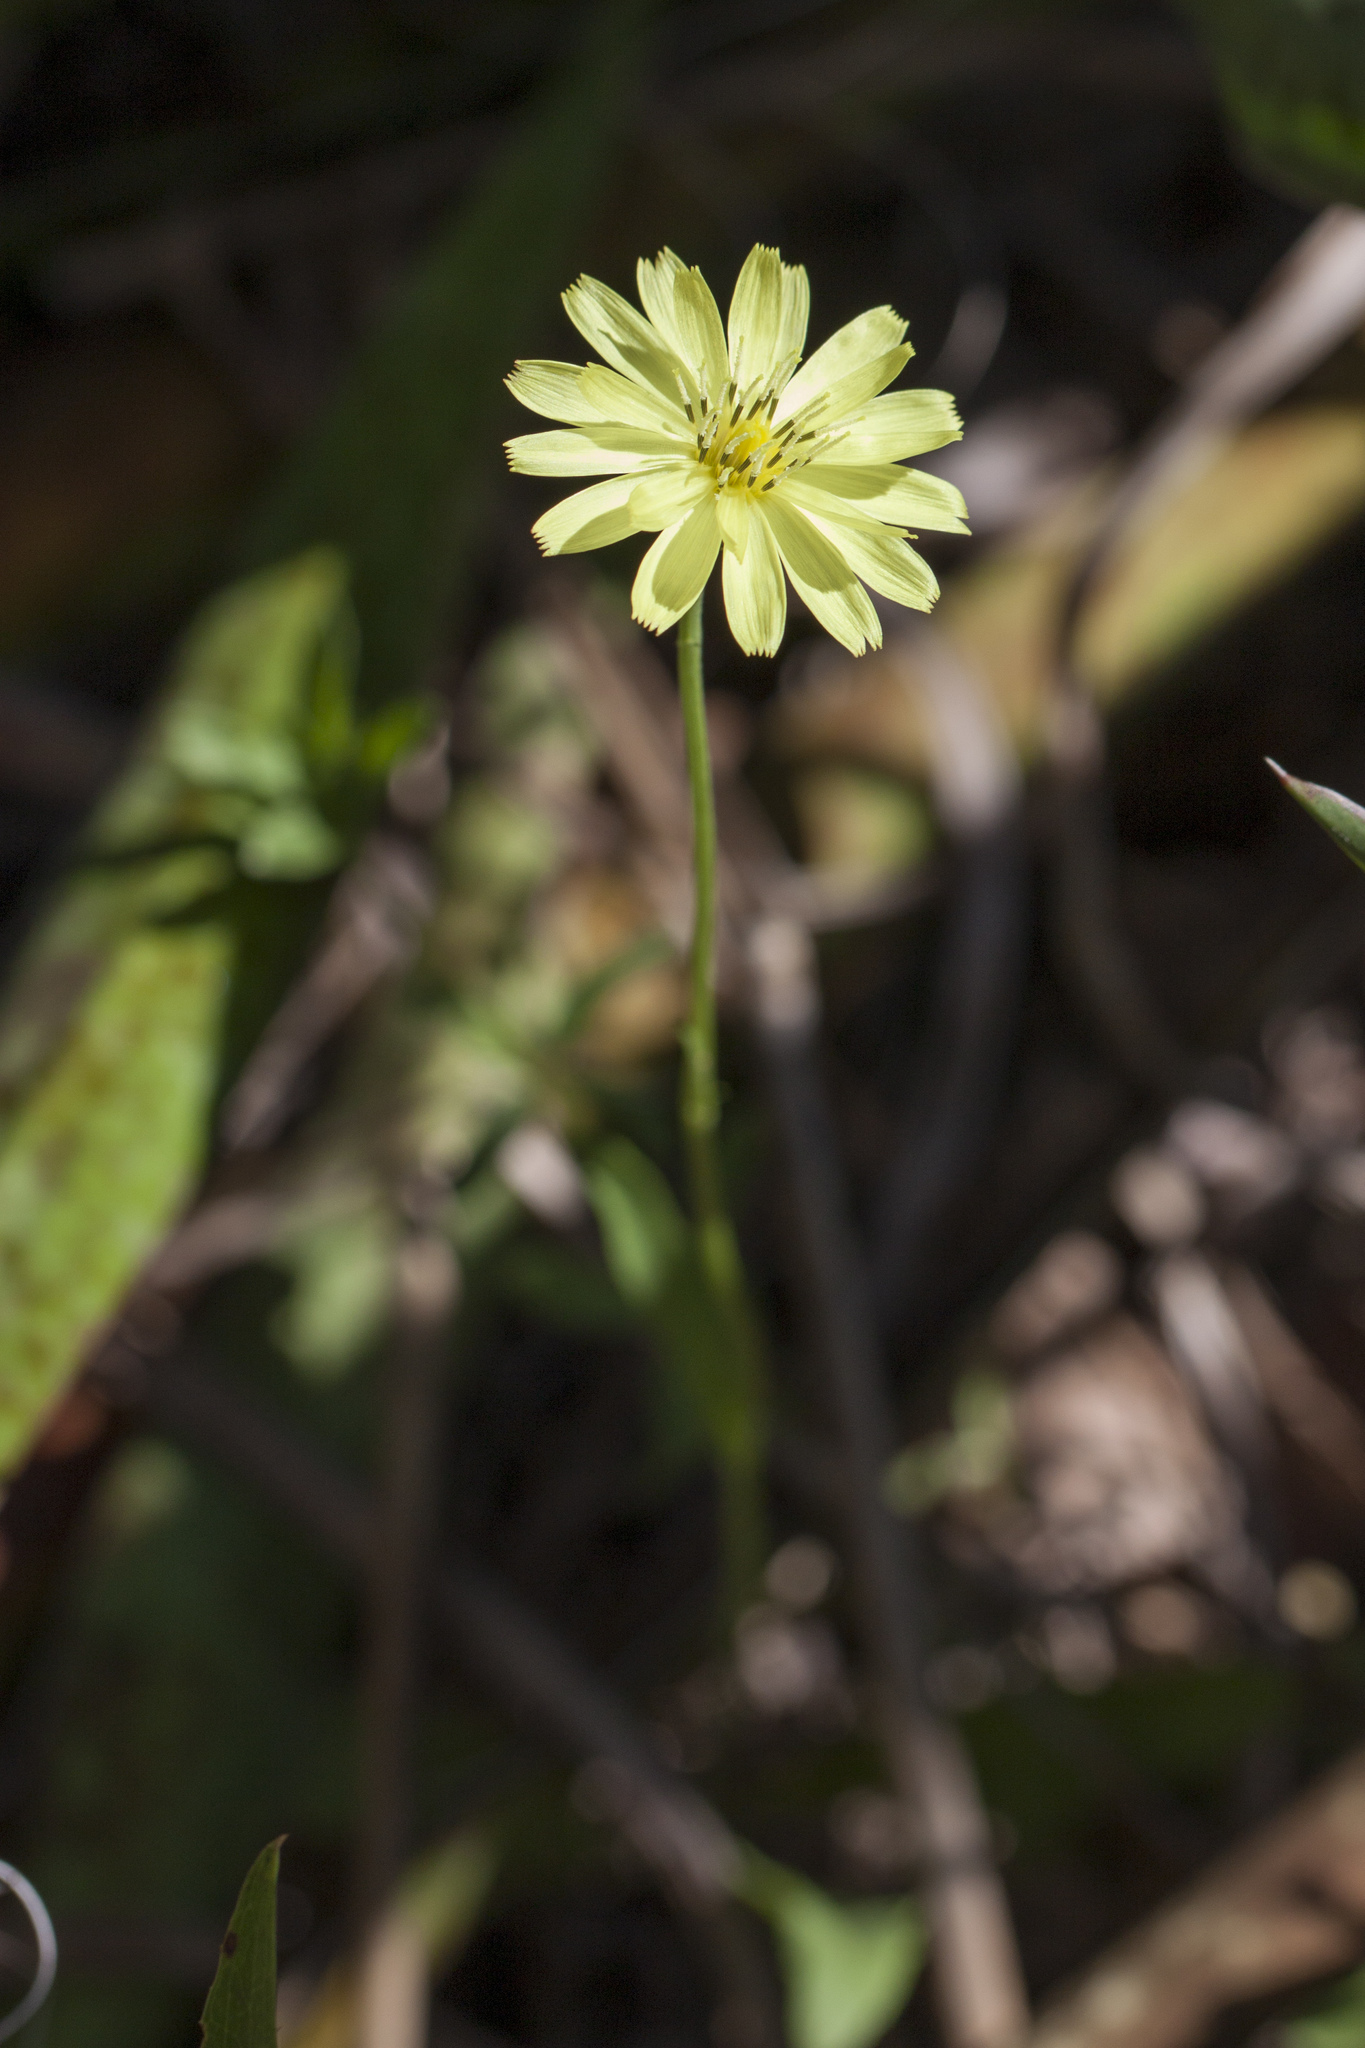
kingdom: Plantae
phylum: Tracheophyta
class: Magnoliopsida
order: Asterales
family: Asteraceae
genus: Pyrrhopappus
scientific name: Pyrrhopappus carolinianus
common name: Carolina desert-chicory
